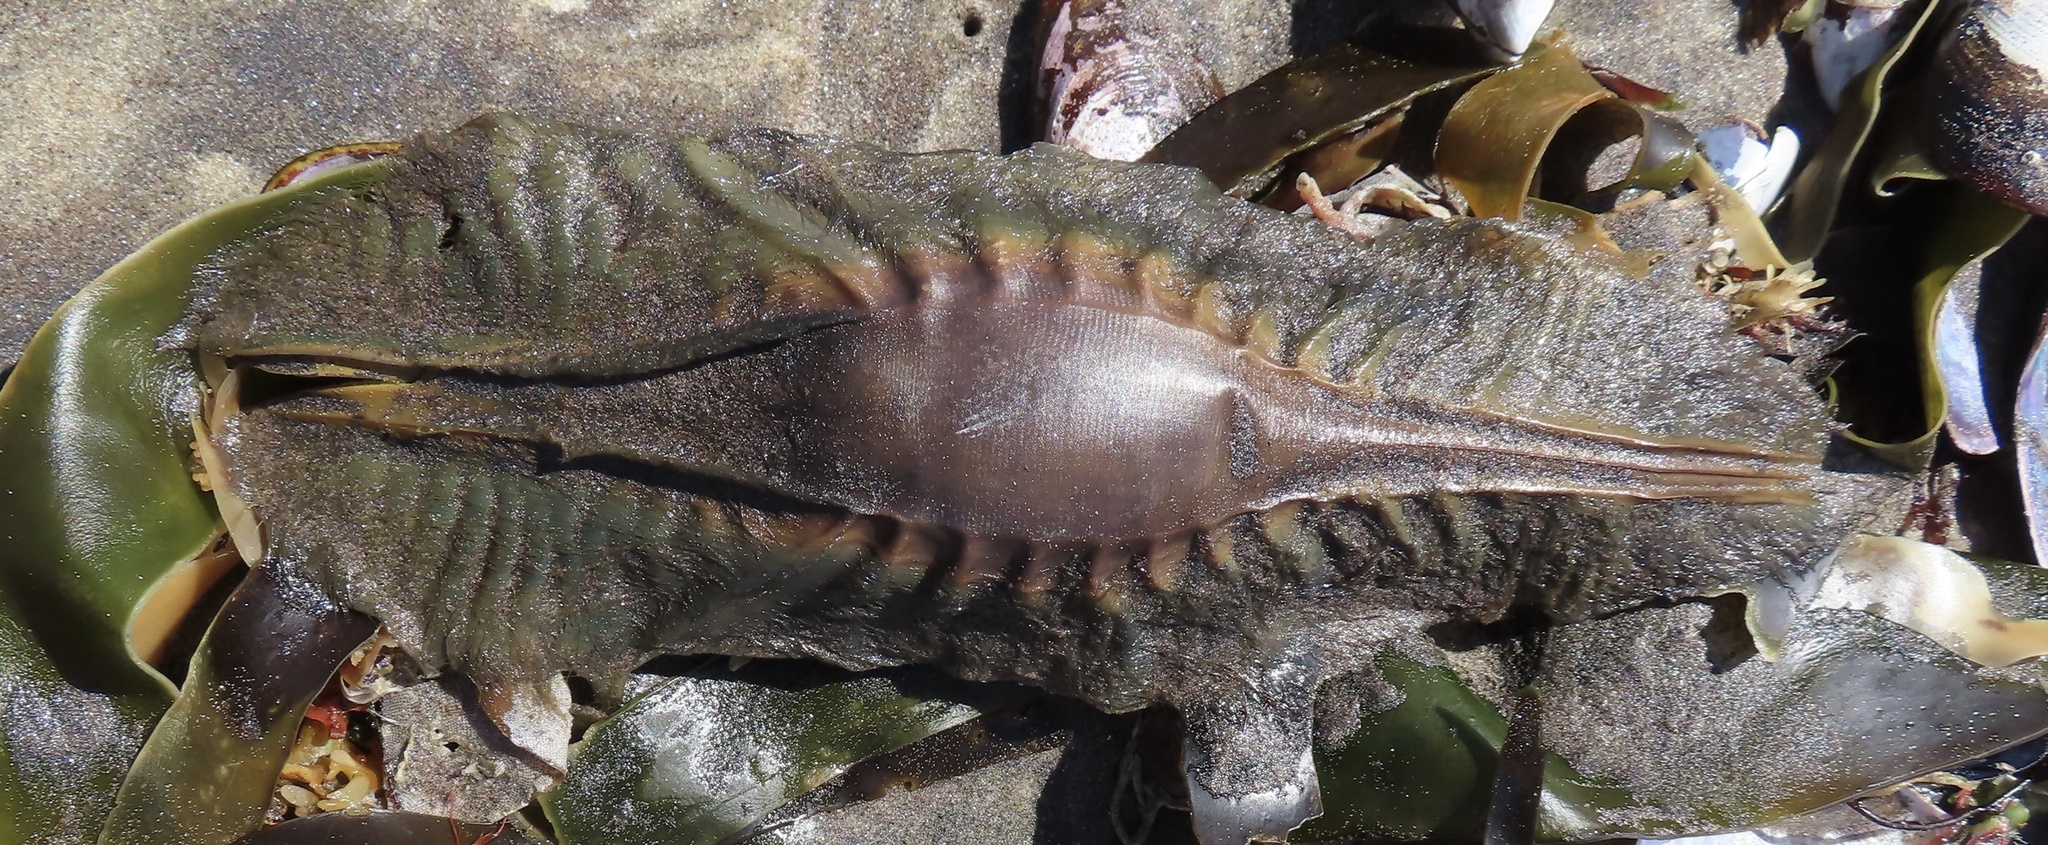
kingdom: Animalia
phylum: Chordata
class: Holocephali
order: Chimaeriformes
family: Callorhinchidae
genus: Callorhinchus
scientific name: Callorhinchus capensis
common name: Cape elephantfish
